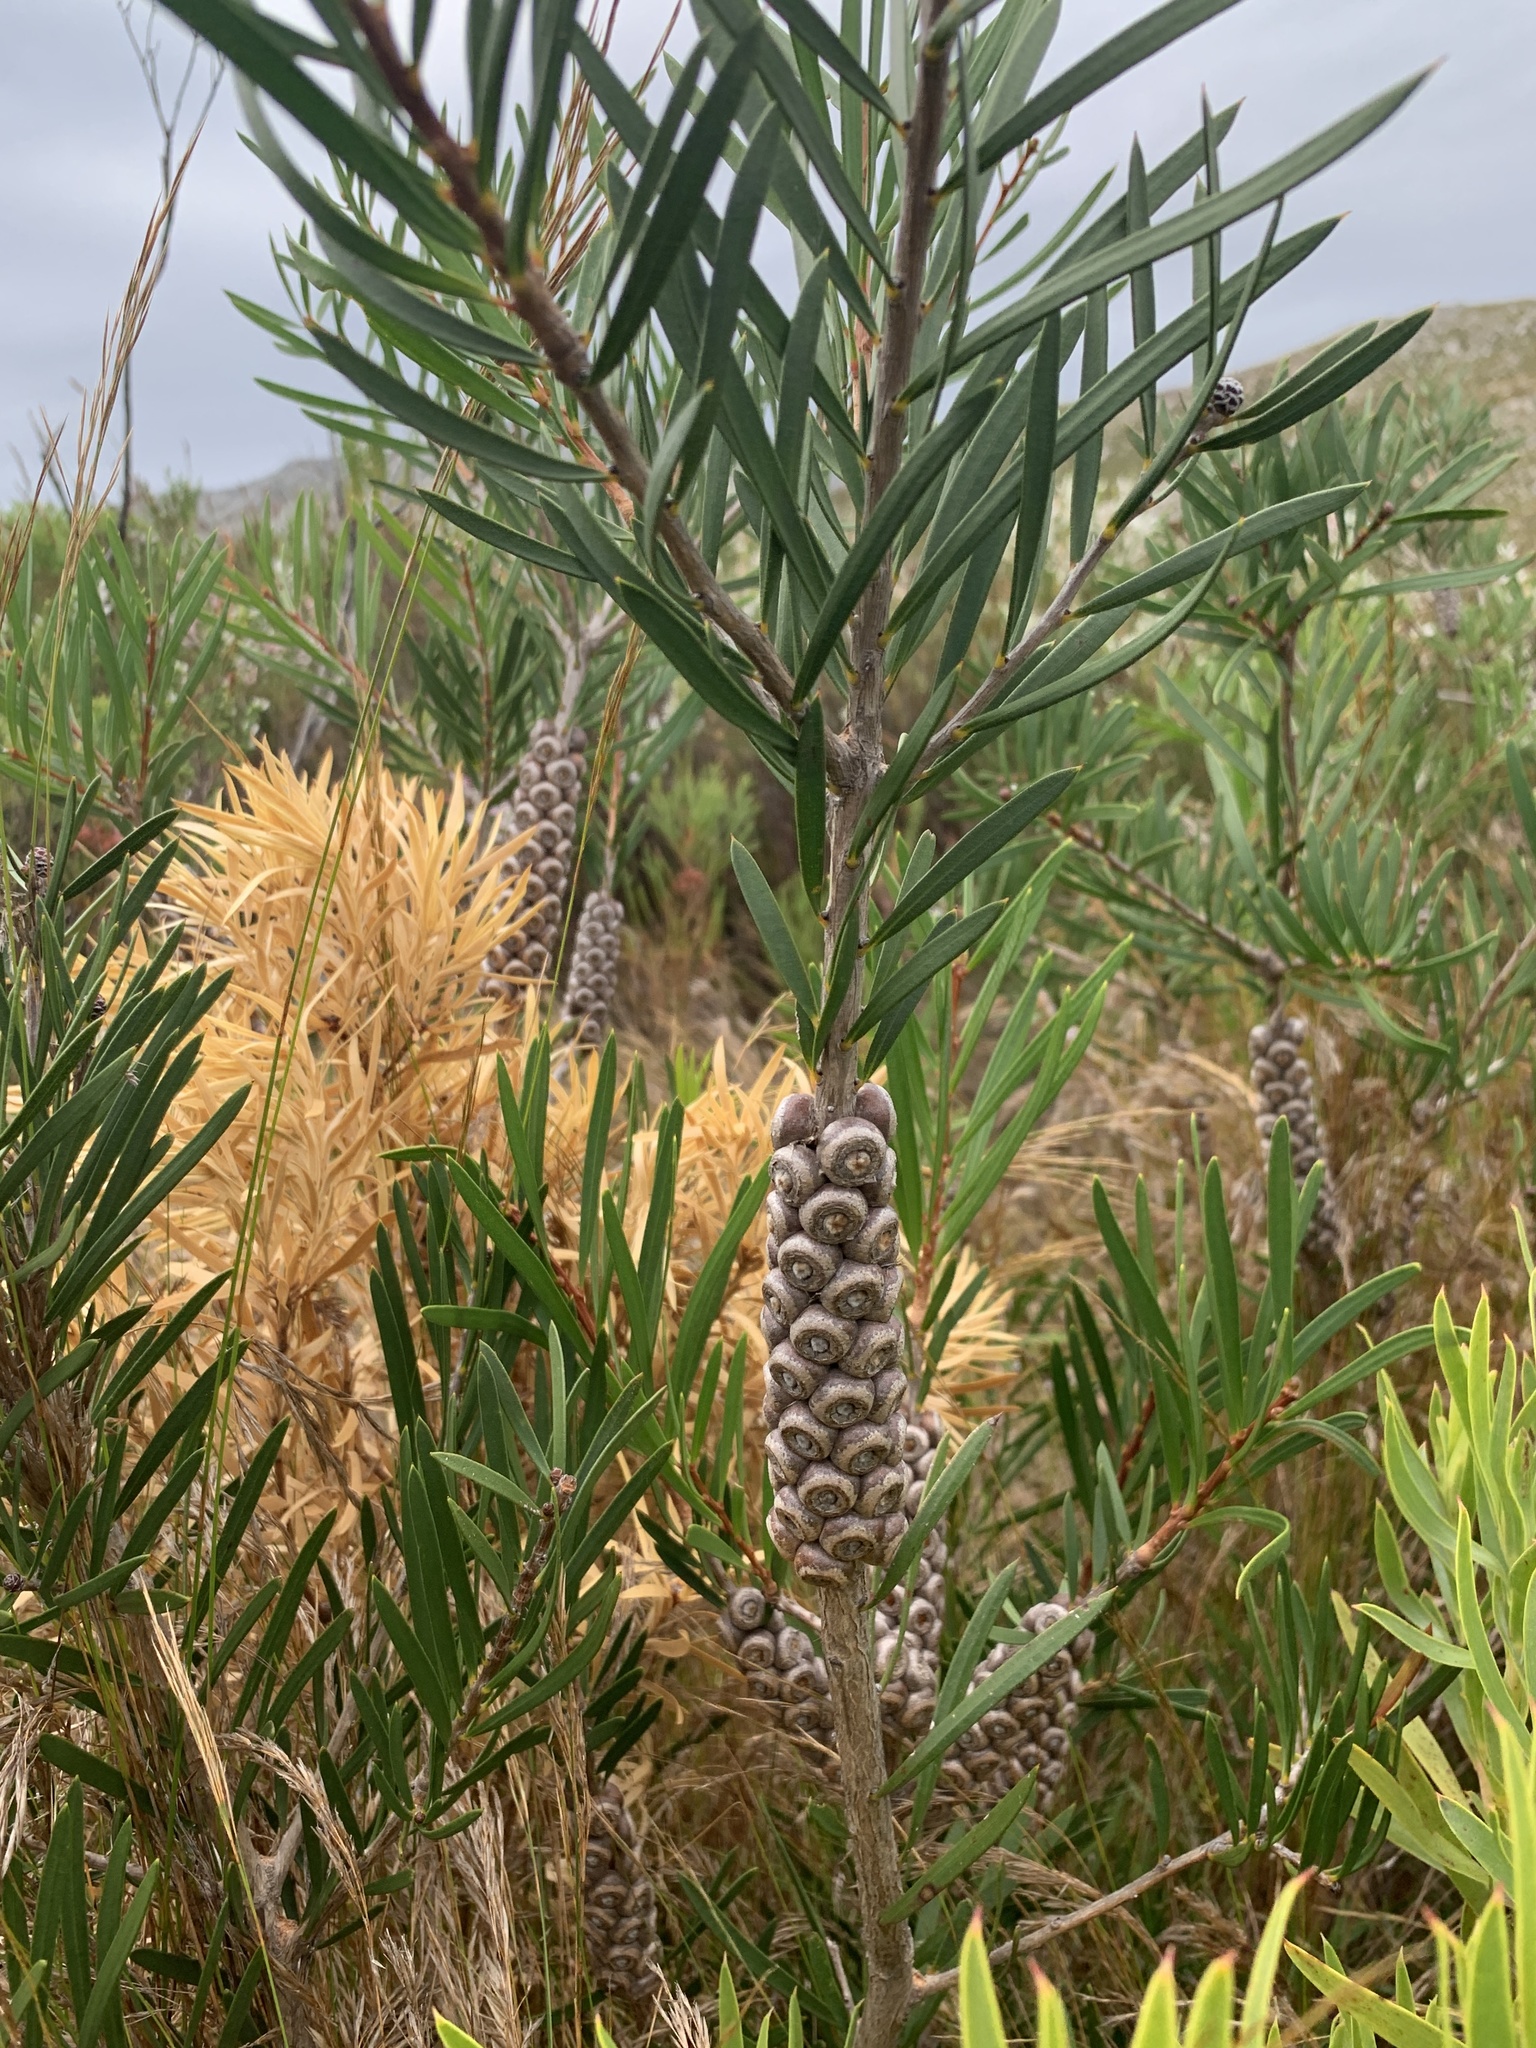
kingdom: Plantae
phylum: Tracheophyta
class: Magnoliopsida
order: Myrtales
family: Myrtaceae
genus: Callistemon
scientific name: Callistemon linearis
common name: Narrow-leaf bottlebrush
